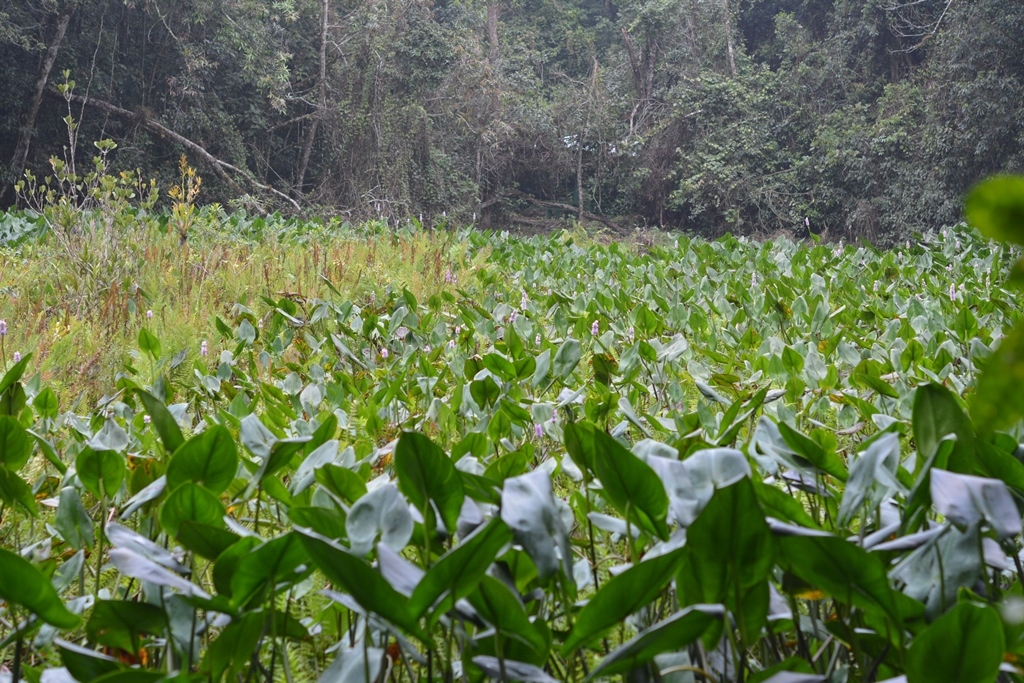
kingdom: Plantae
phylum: Tracheophyta
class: Liliopsida
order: Commelinales
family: Pontederiaceae
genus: Pontederia
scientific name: Pontederia sagittata
